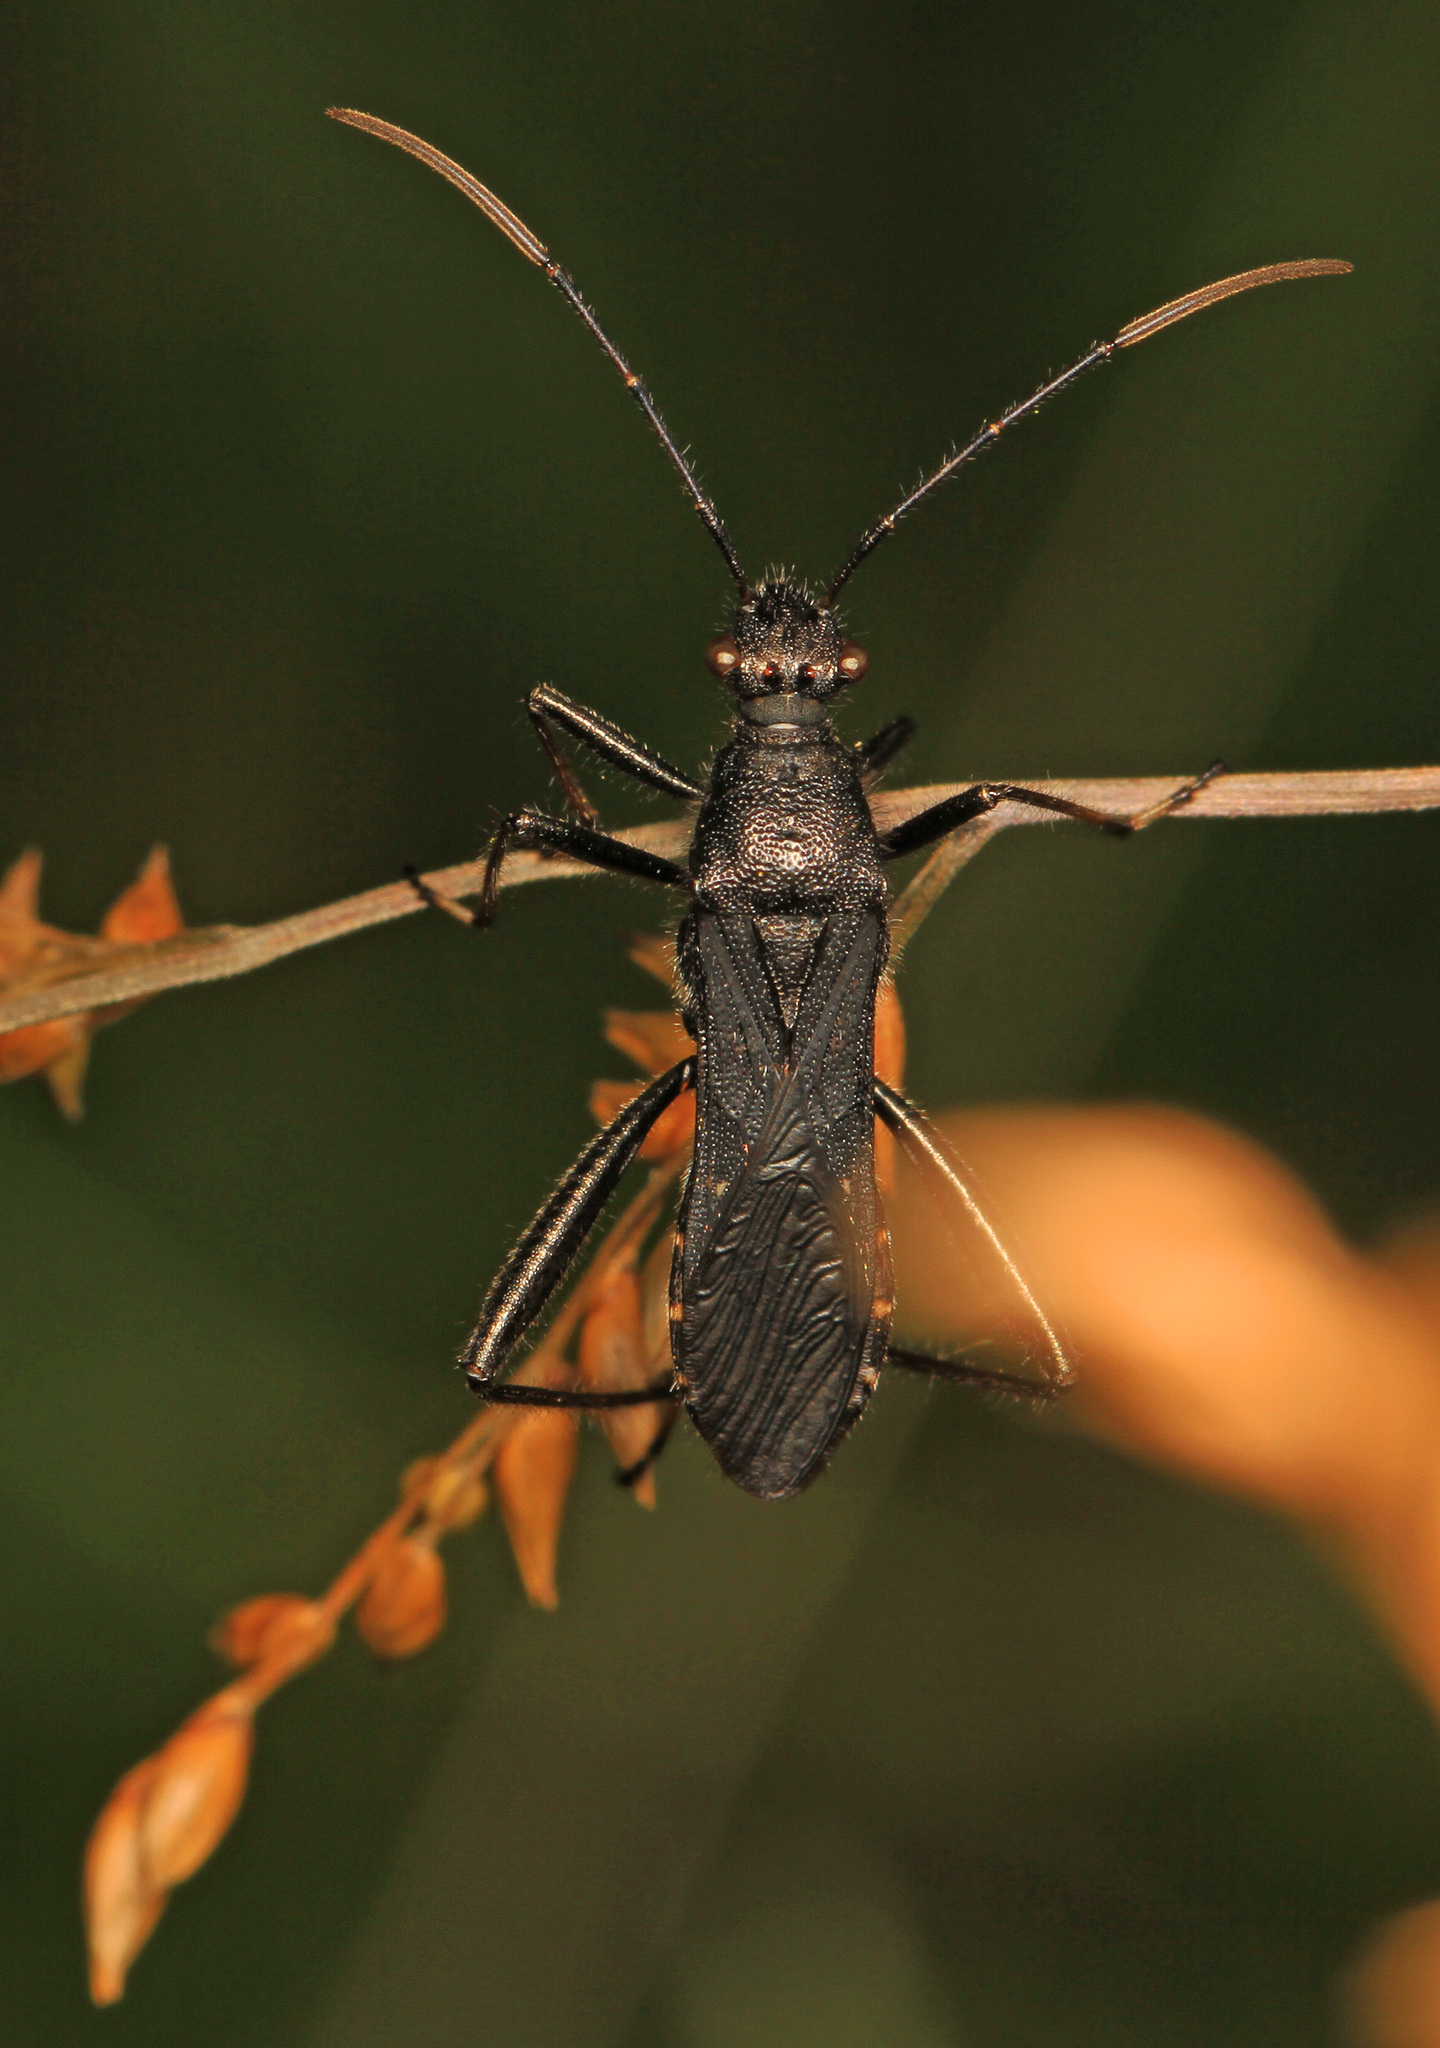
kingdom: Animalia
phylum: Arthropoda
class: Insecta
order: Hemiptera
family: Alydidae
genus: Alydus
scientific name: Alydus eurinus
